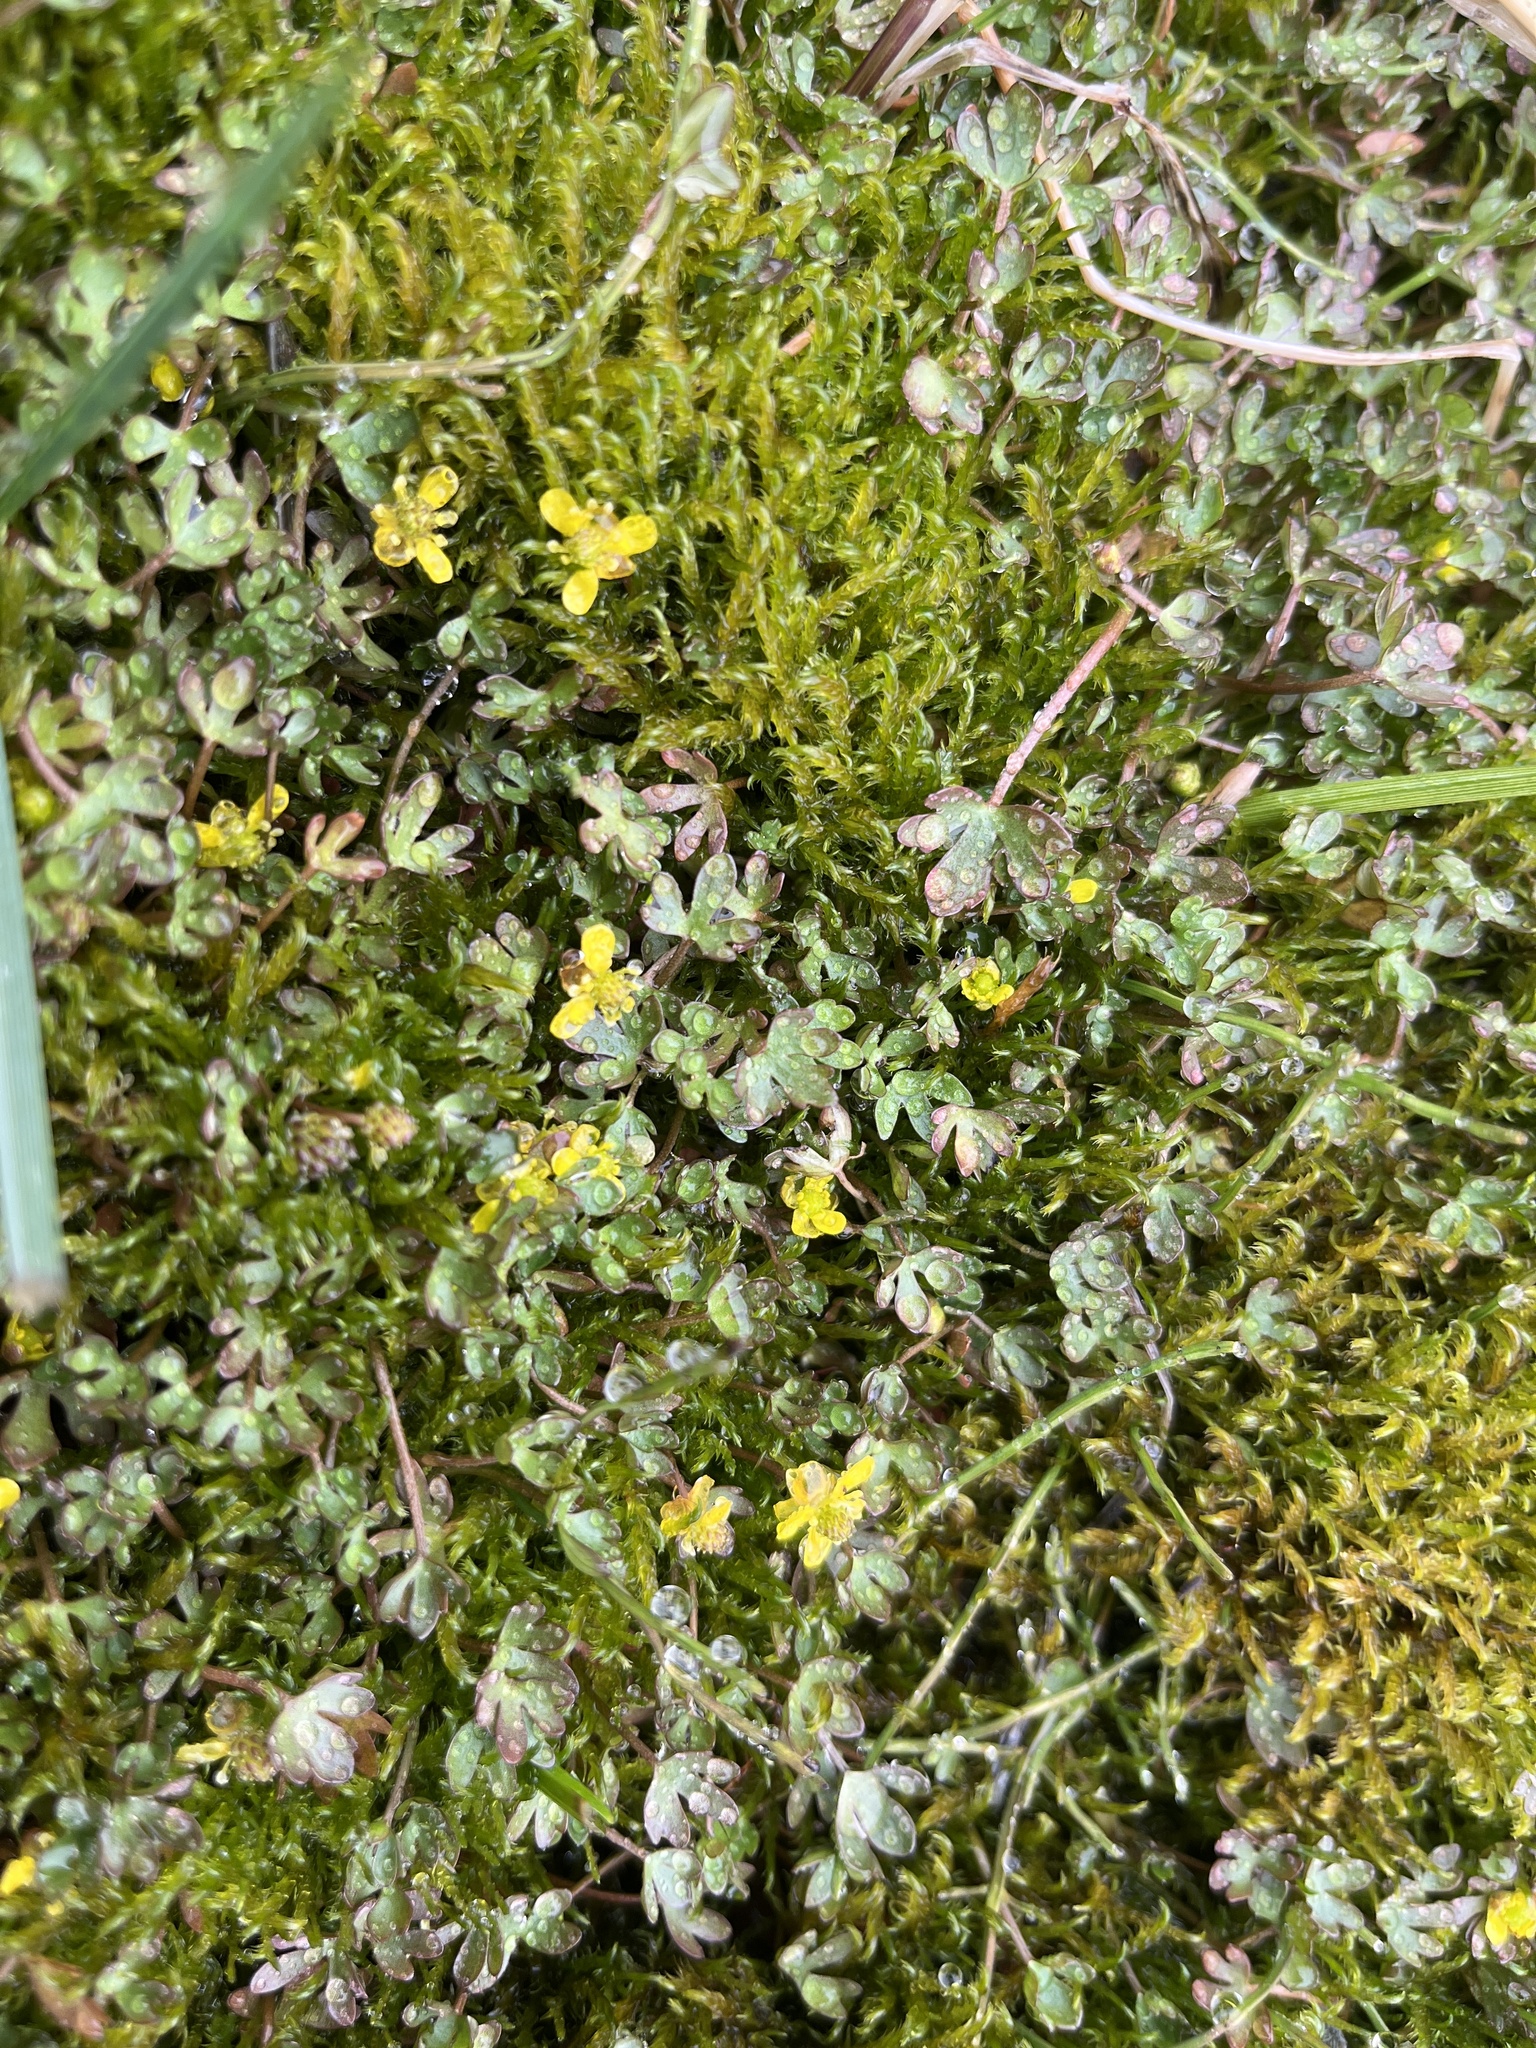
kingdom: Plantae
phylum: Tracheophyta
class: Magnoliopsida
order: Ranunculales
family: Ranunculaceae
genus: Ranunculus
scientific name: Ranunculus hyperboreus
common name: Arctic buttercup
